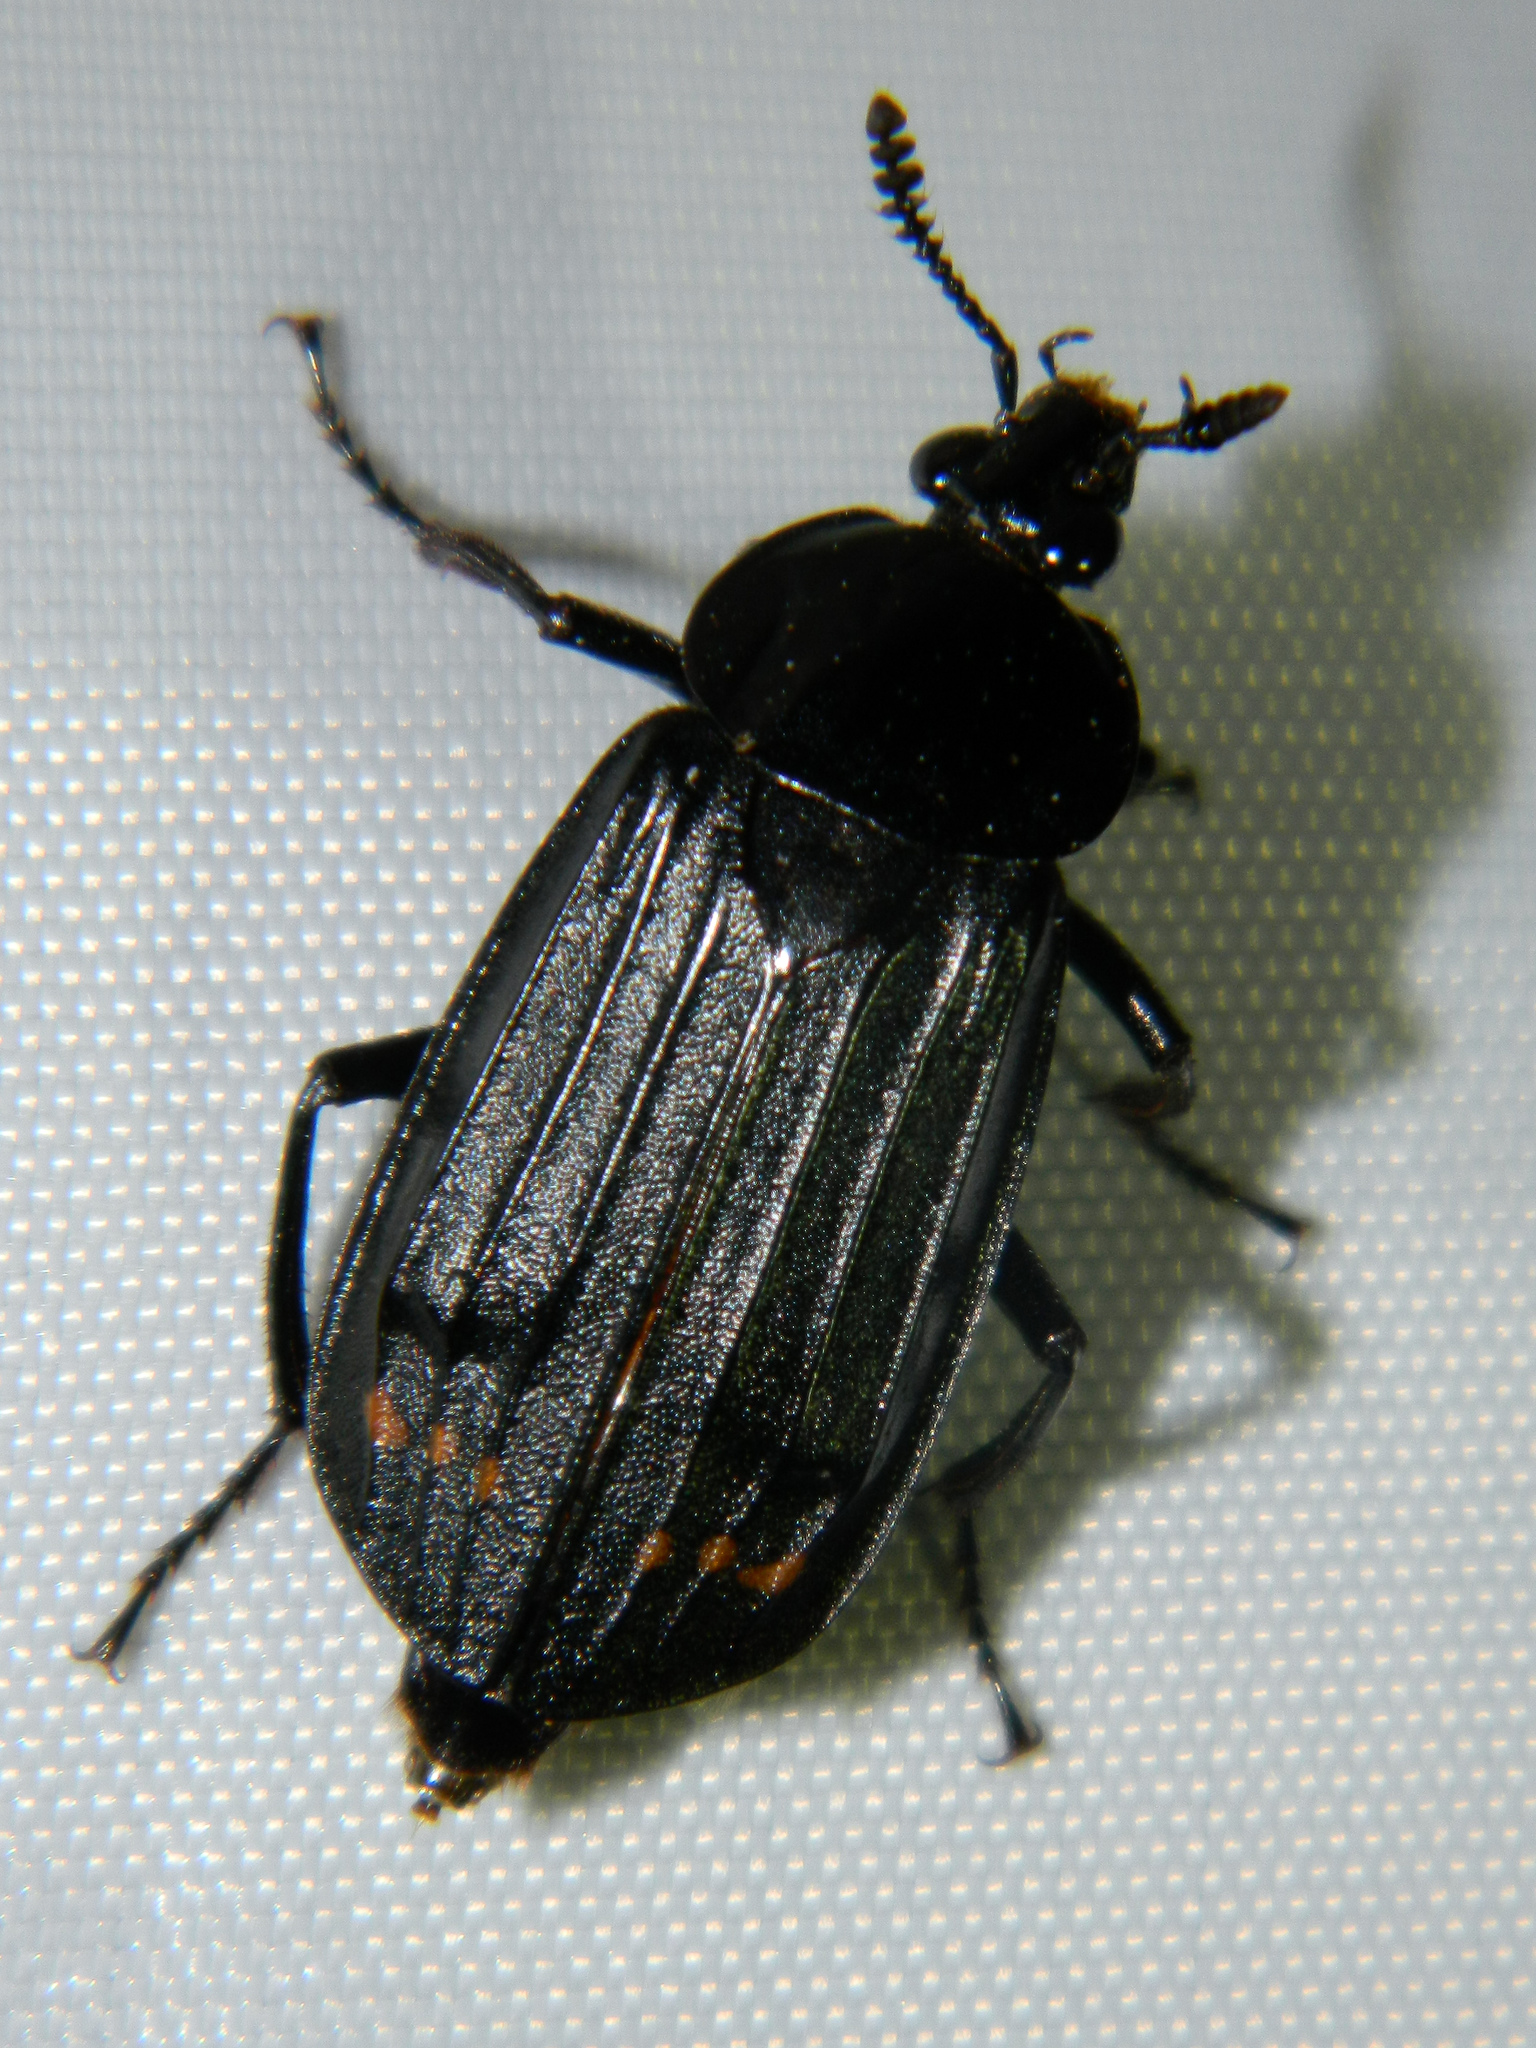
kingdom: Animalia
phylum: Arthropoda
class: Insecta
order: Coleoptera
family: Staphylinidae
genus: Necrodes
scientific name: Necrodes surinamensis
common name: Red-lined carrion beetle
